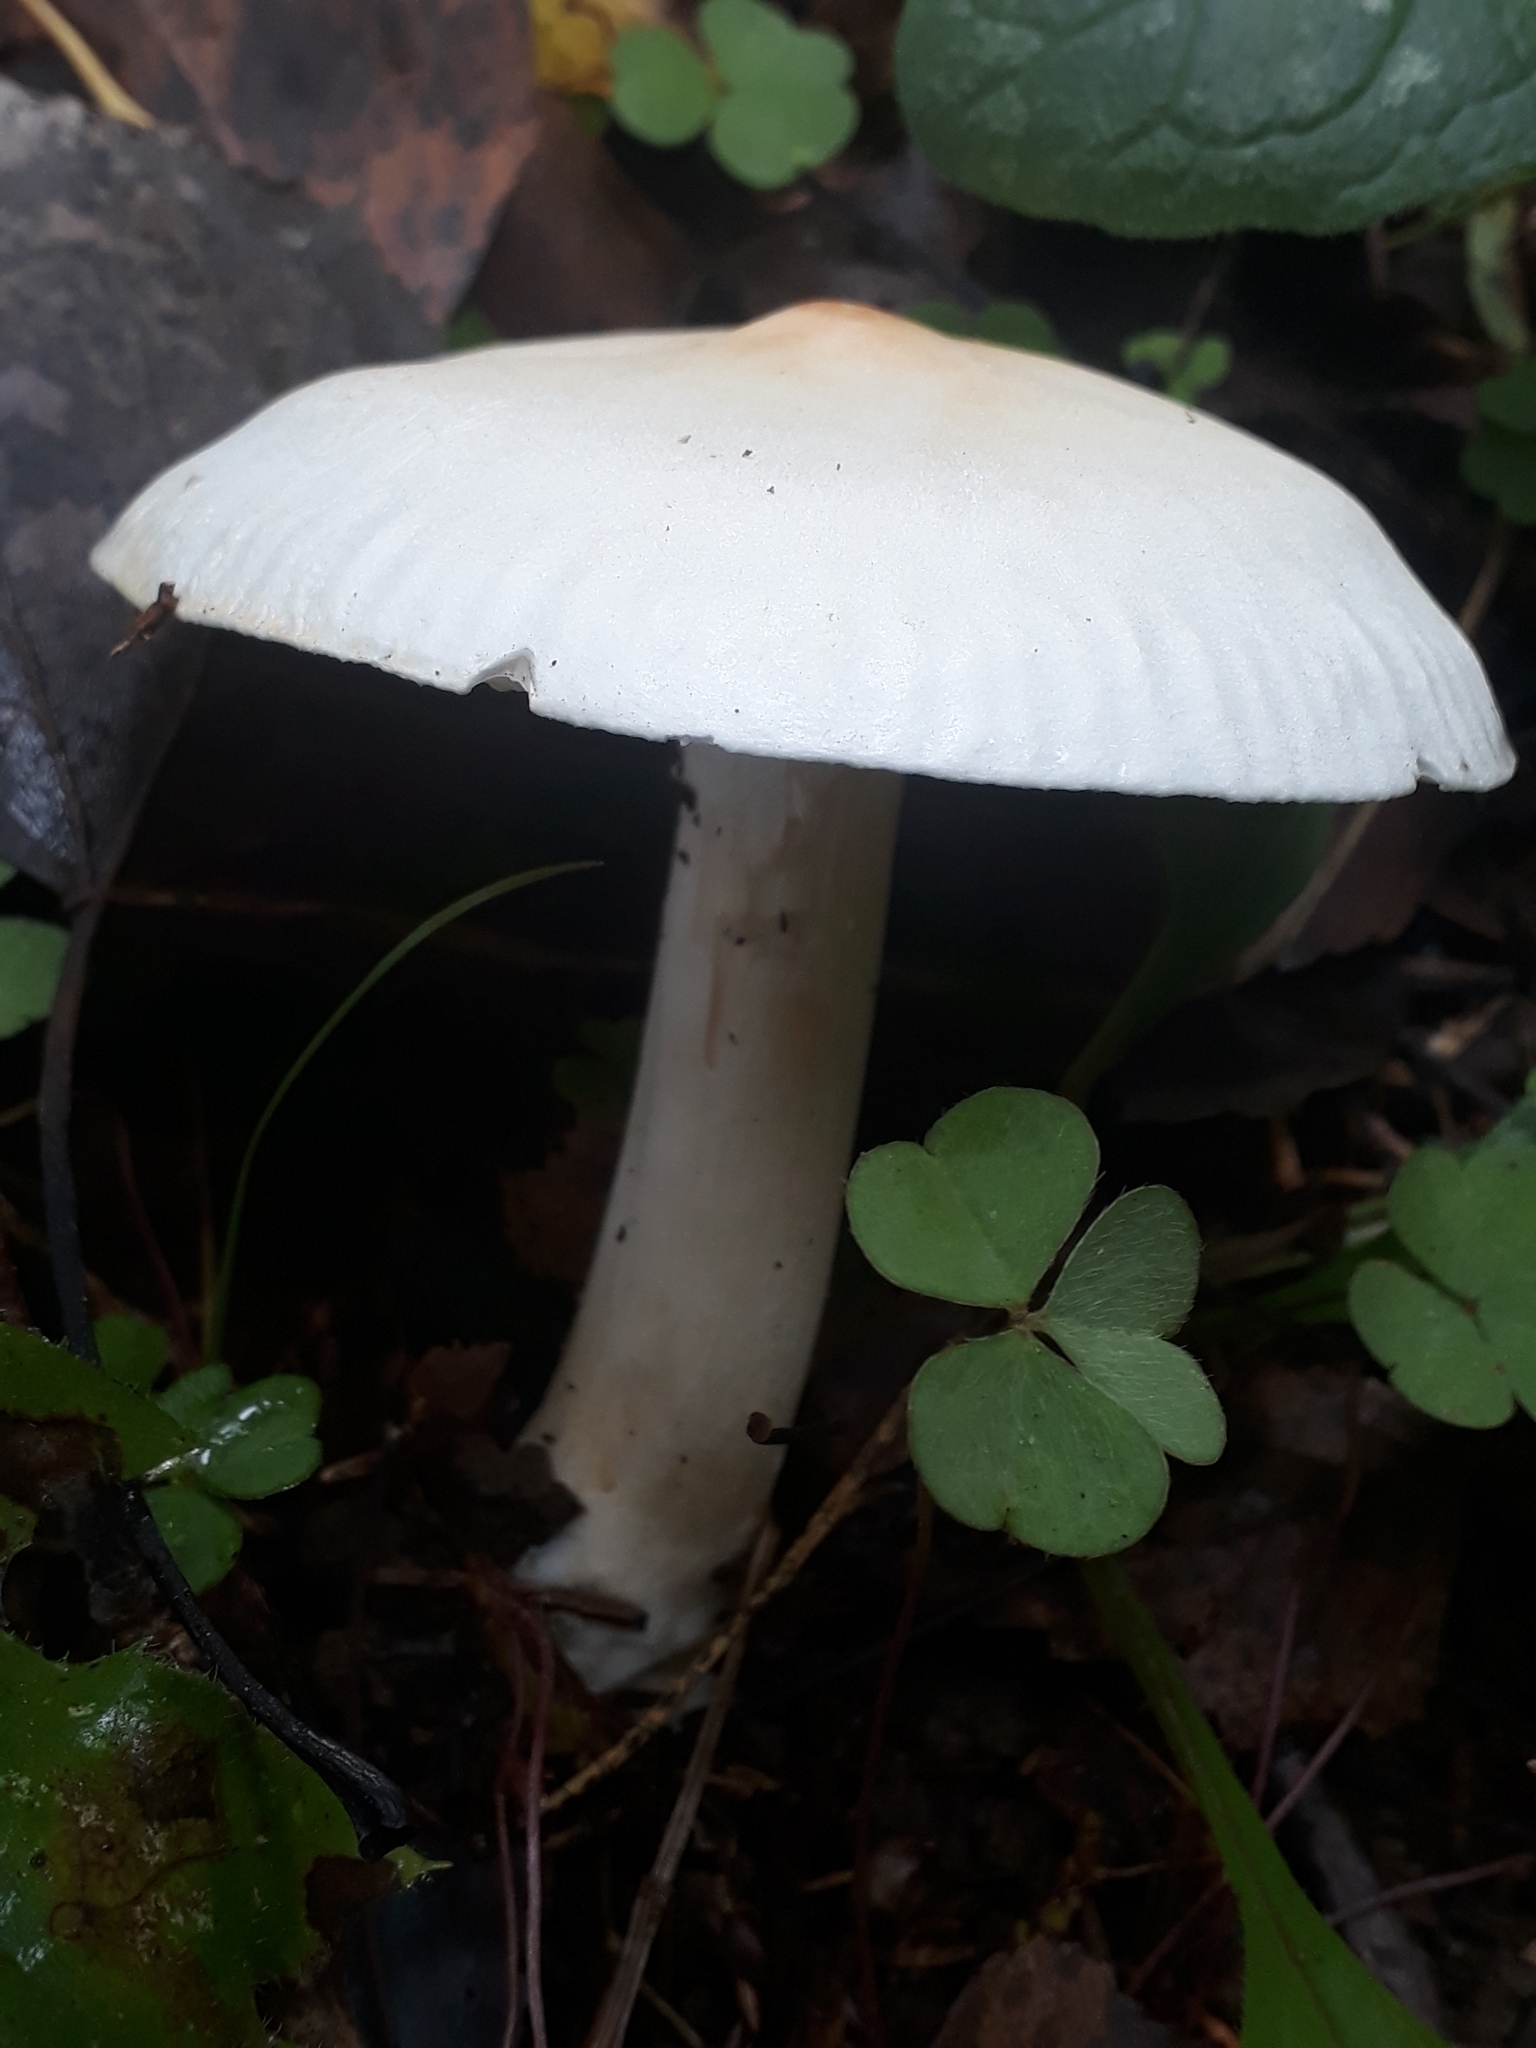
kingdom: Fungi
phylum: Basidiomycota
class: Agaricomycetes
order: Agaricales
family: Omphalotaceae
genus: Rhodocollybia
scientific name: Rhodocollybia maculata
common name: Spotted tough-shank
